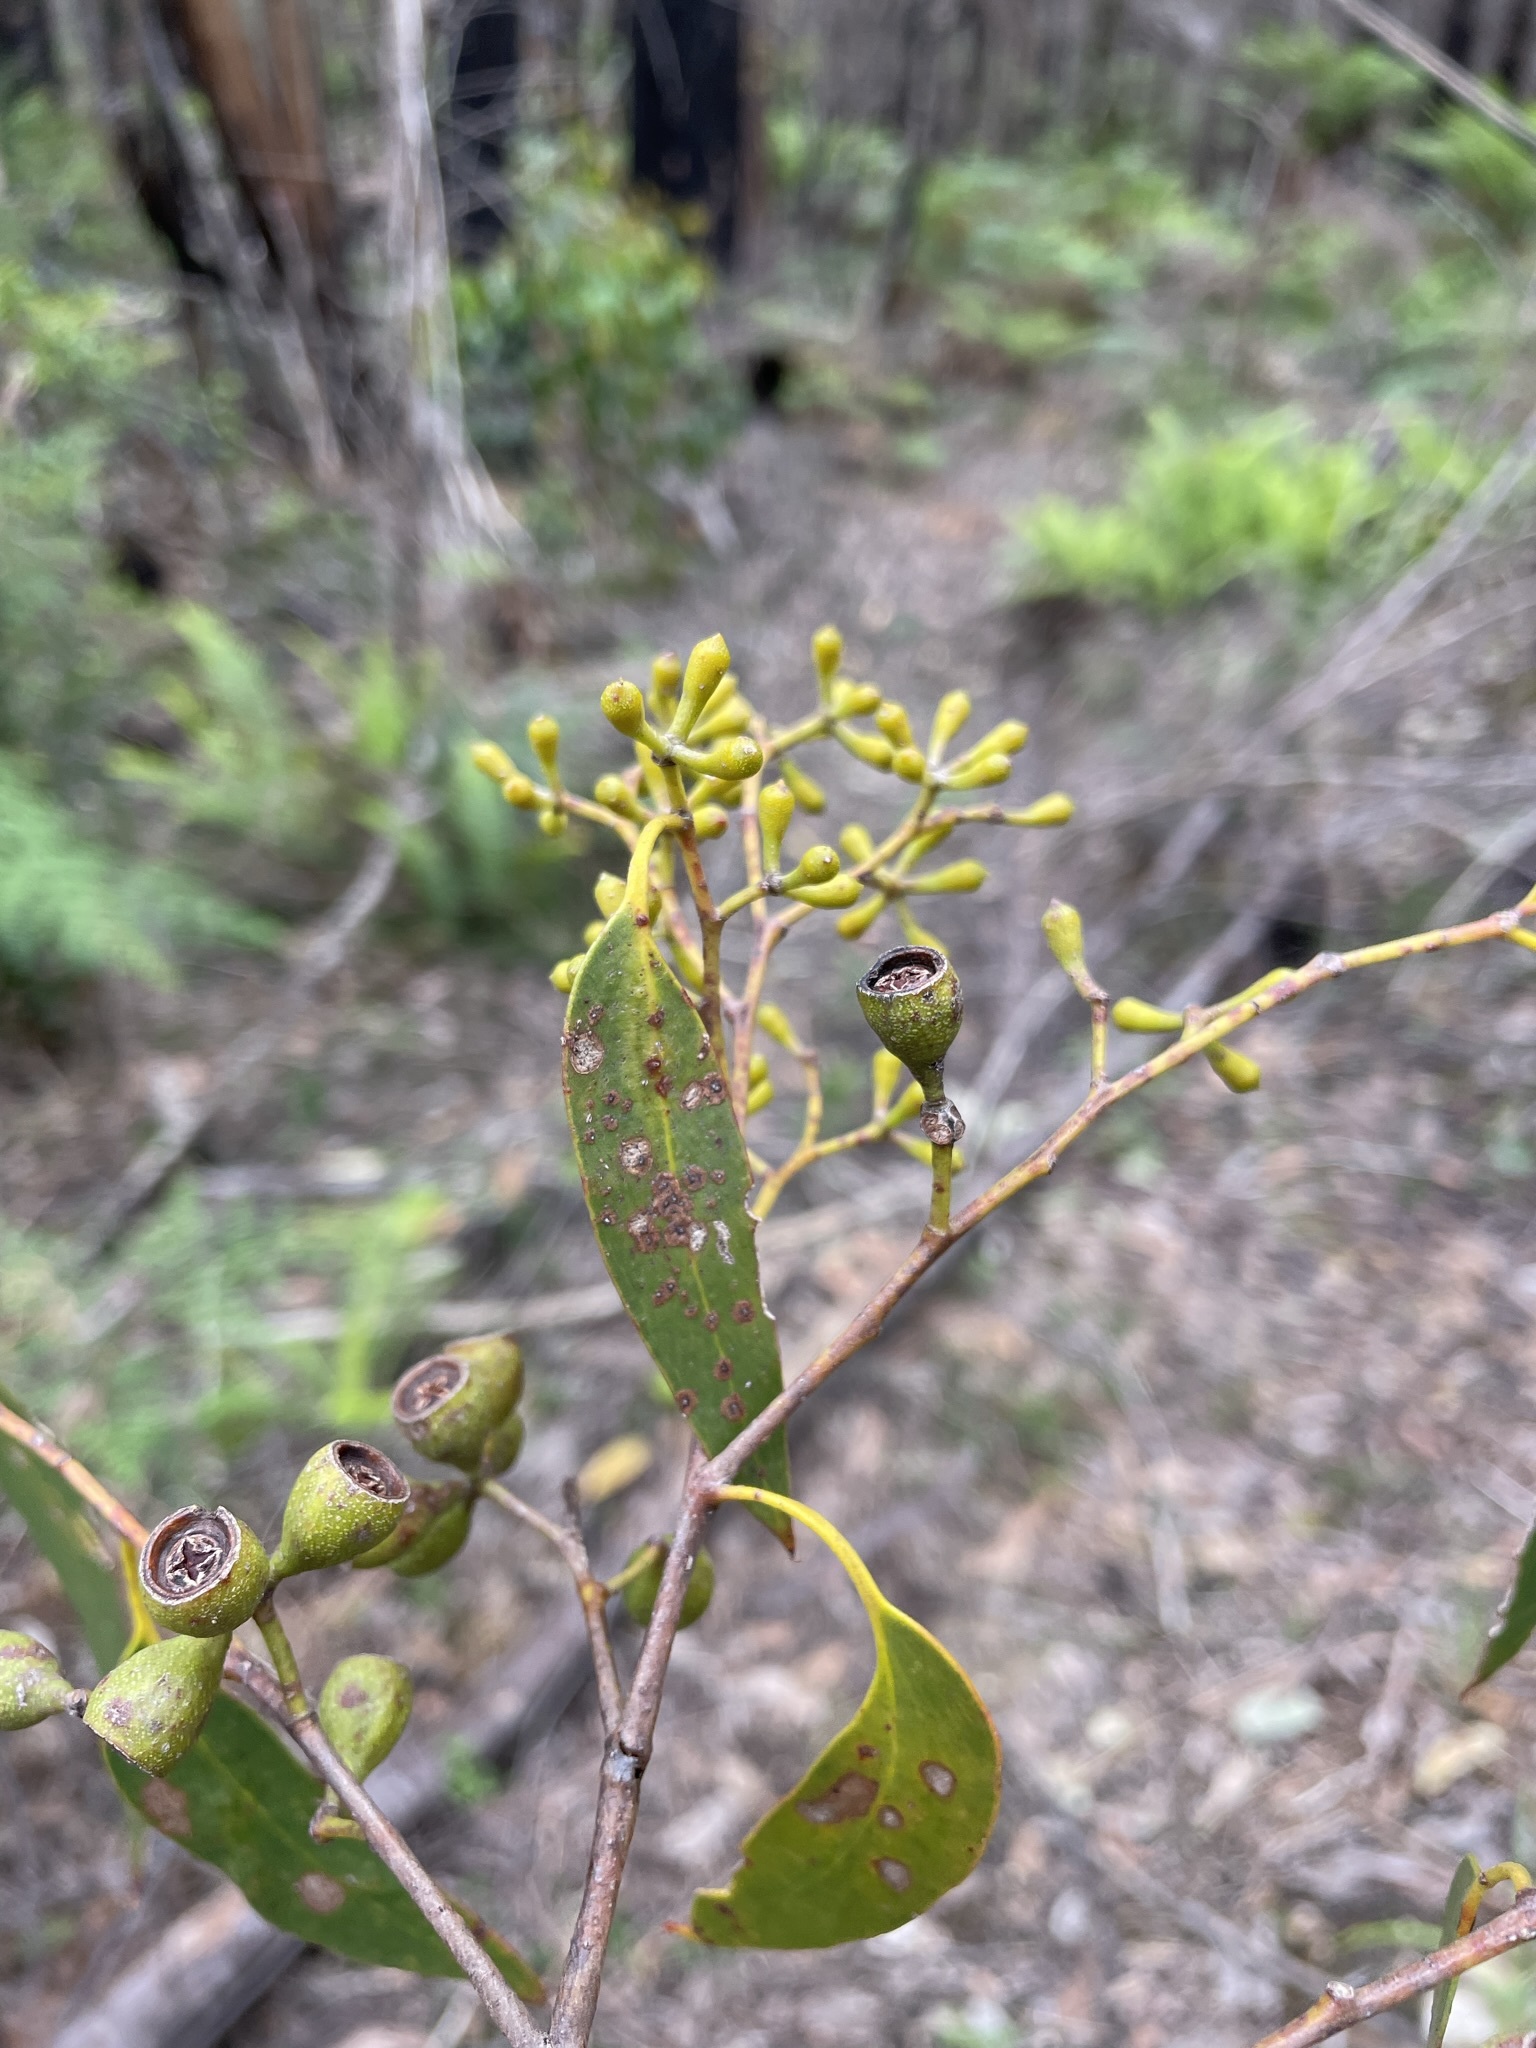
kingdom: Plantae
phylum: Tracheophyta
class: Magnoliopsida
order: Myrtales
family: Myrtaceae
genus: Eucalyptus
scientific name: Eucalyptus obliqua
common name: Messmate stringybark
